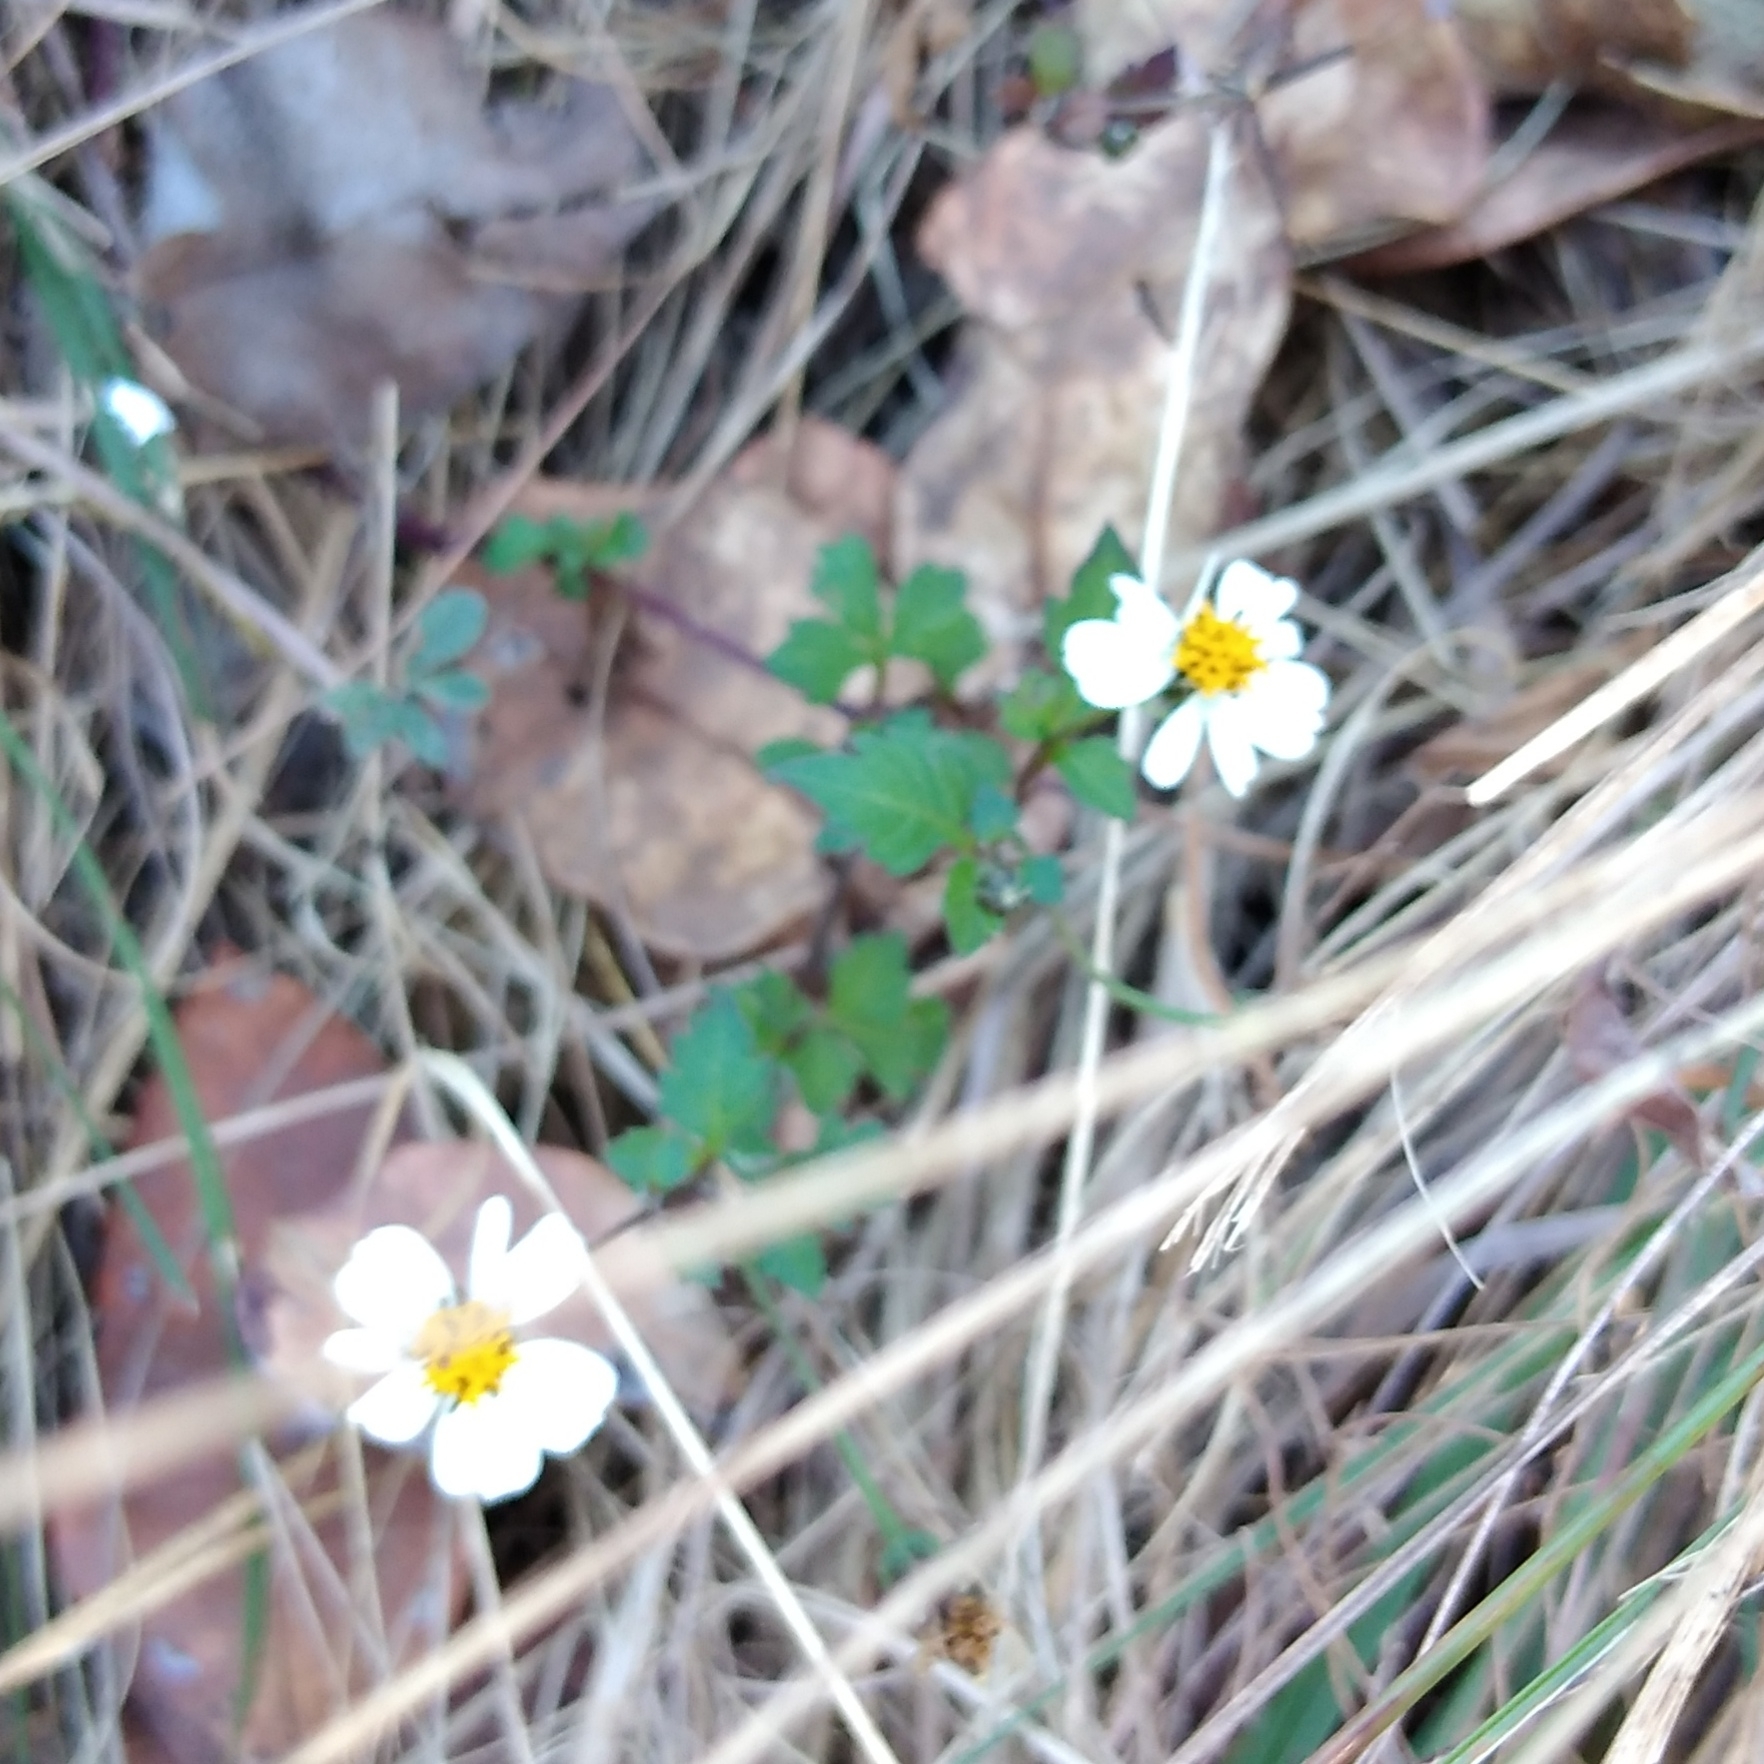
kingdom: Plantae
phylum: Tracheophyta
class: Magnoliopsida
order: Asterales
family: Asteraceae
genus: Bidens
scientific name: Bidens pilosa
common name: Black-jack
